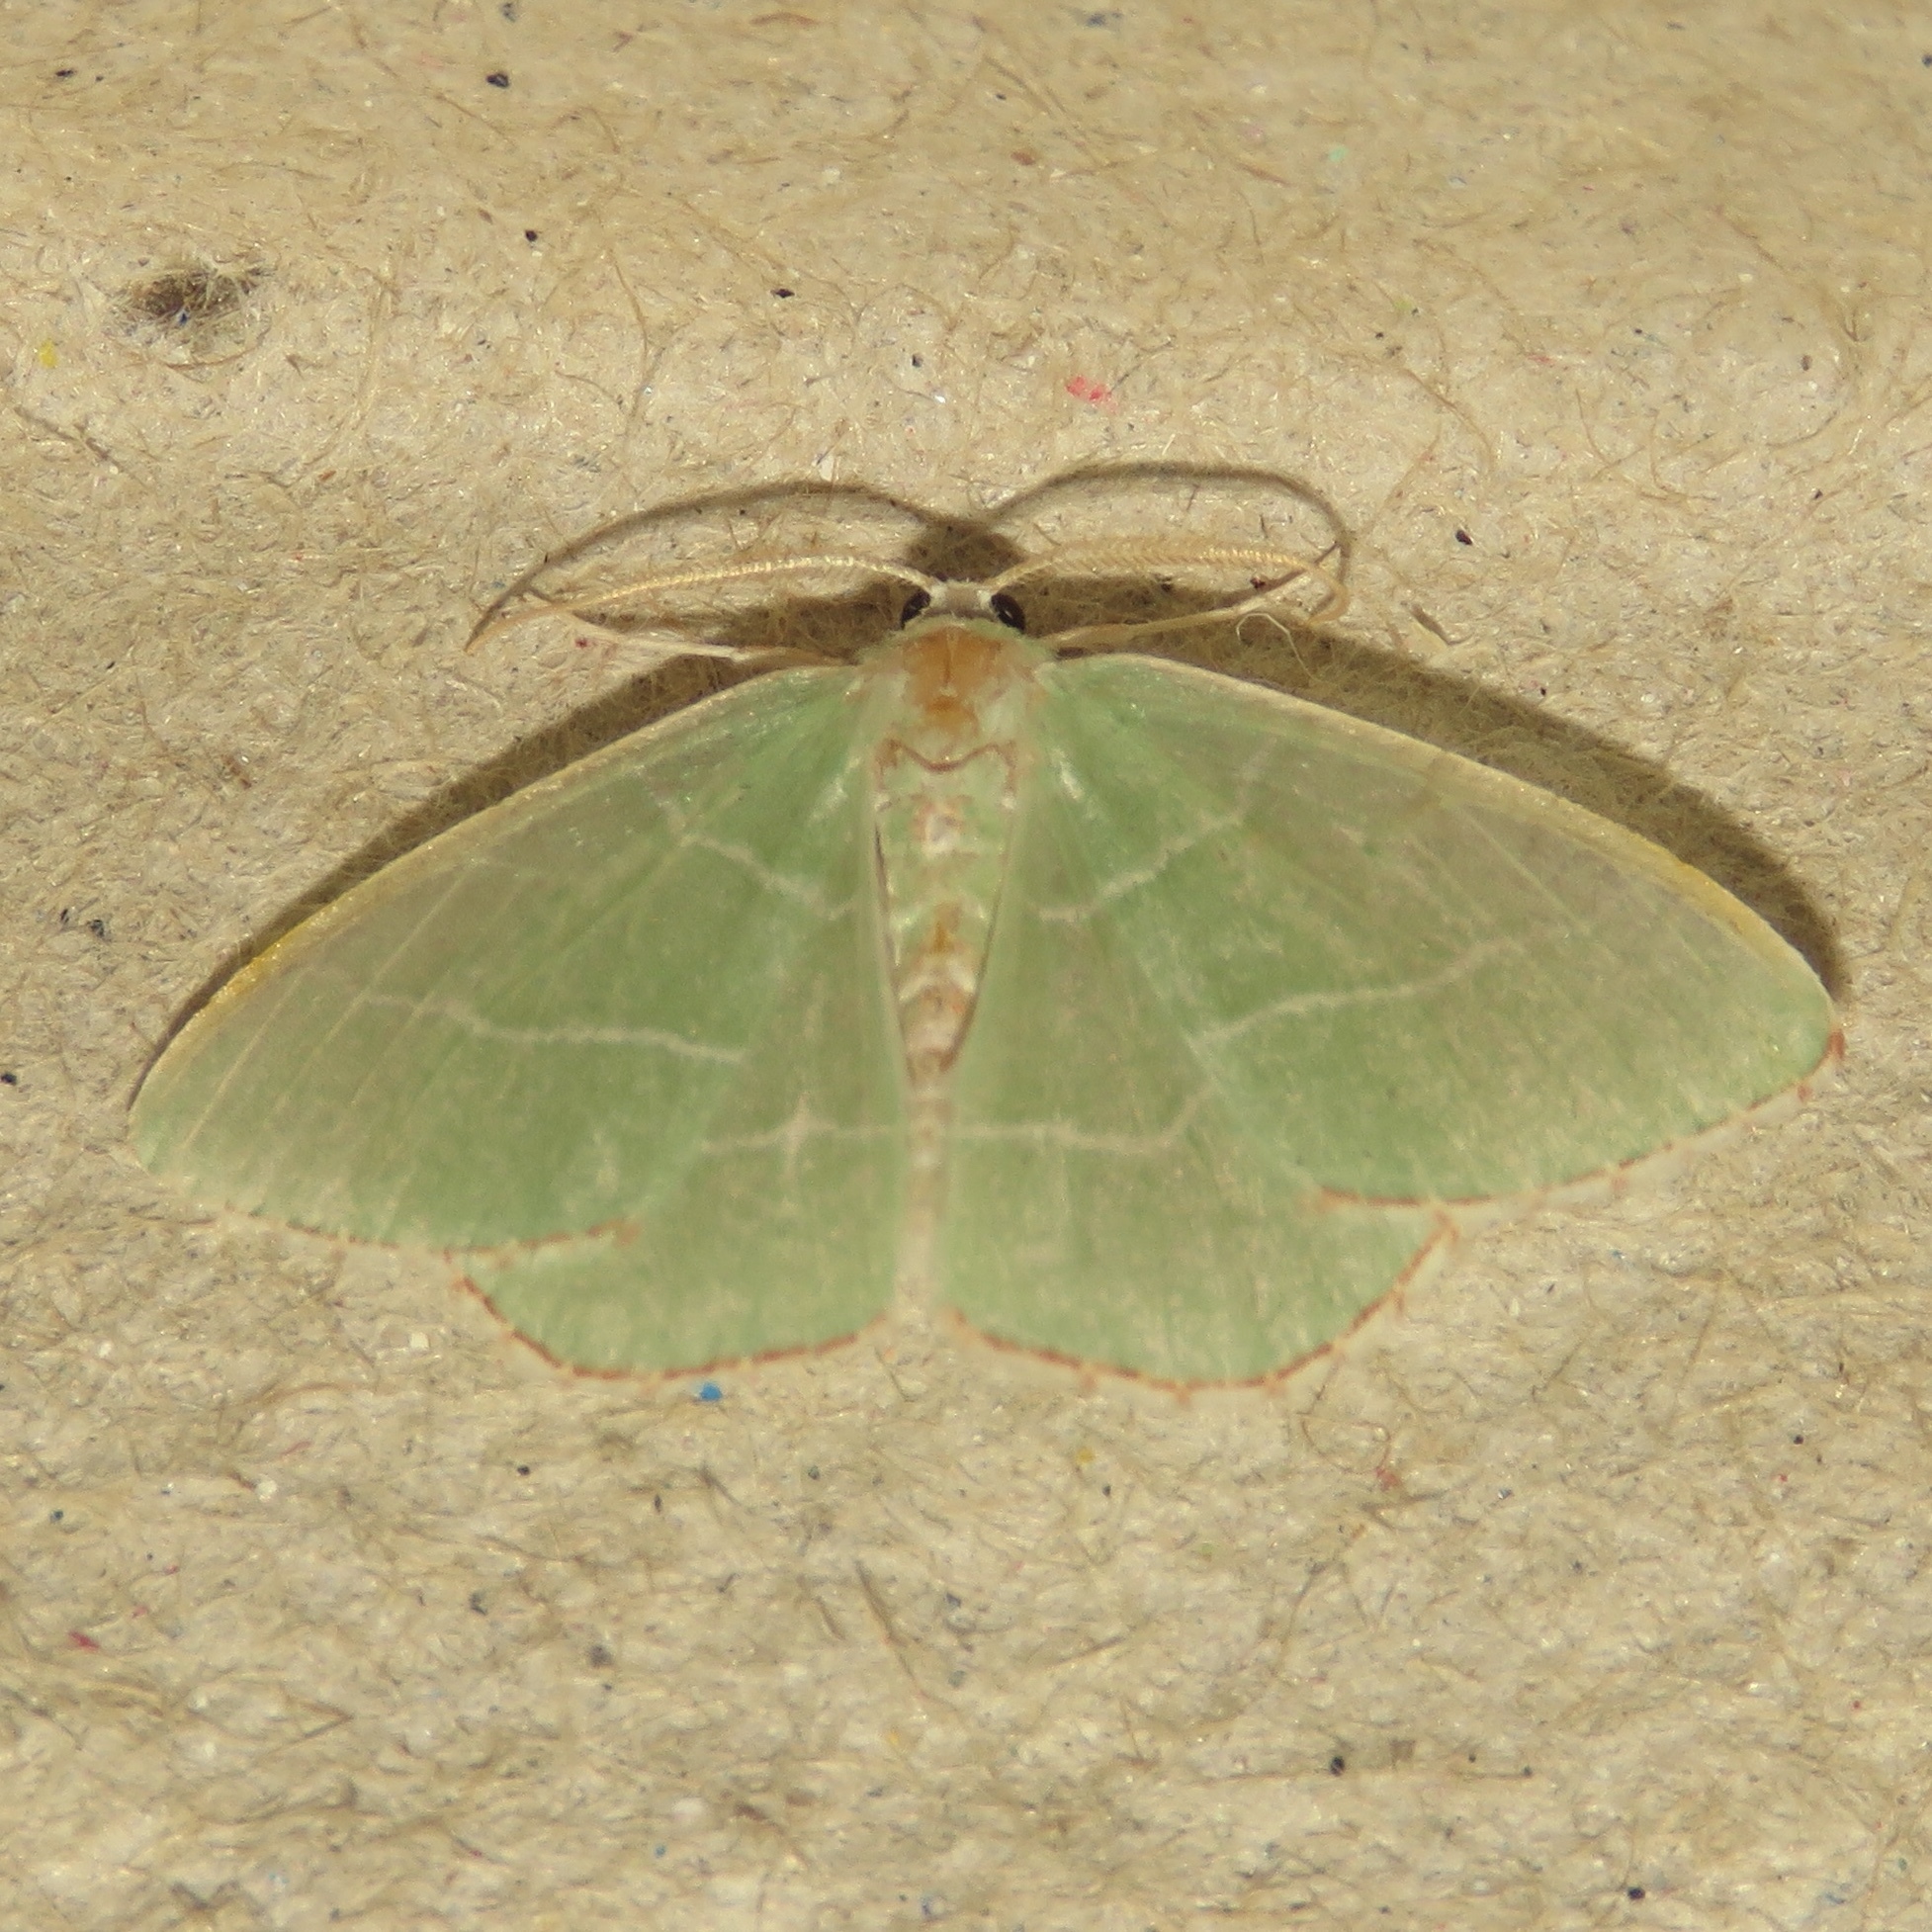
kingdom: Animalia
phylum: Arthropoda
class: Insecta
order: Lepidoptera
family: Geometridae
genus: Nemoria
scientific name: Nemoria bistriaria
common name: Red-fringed emerald
